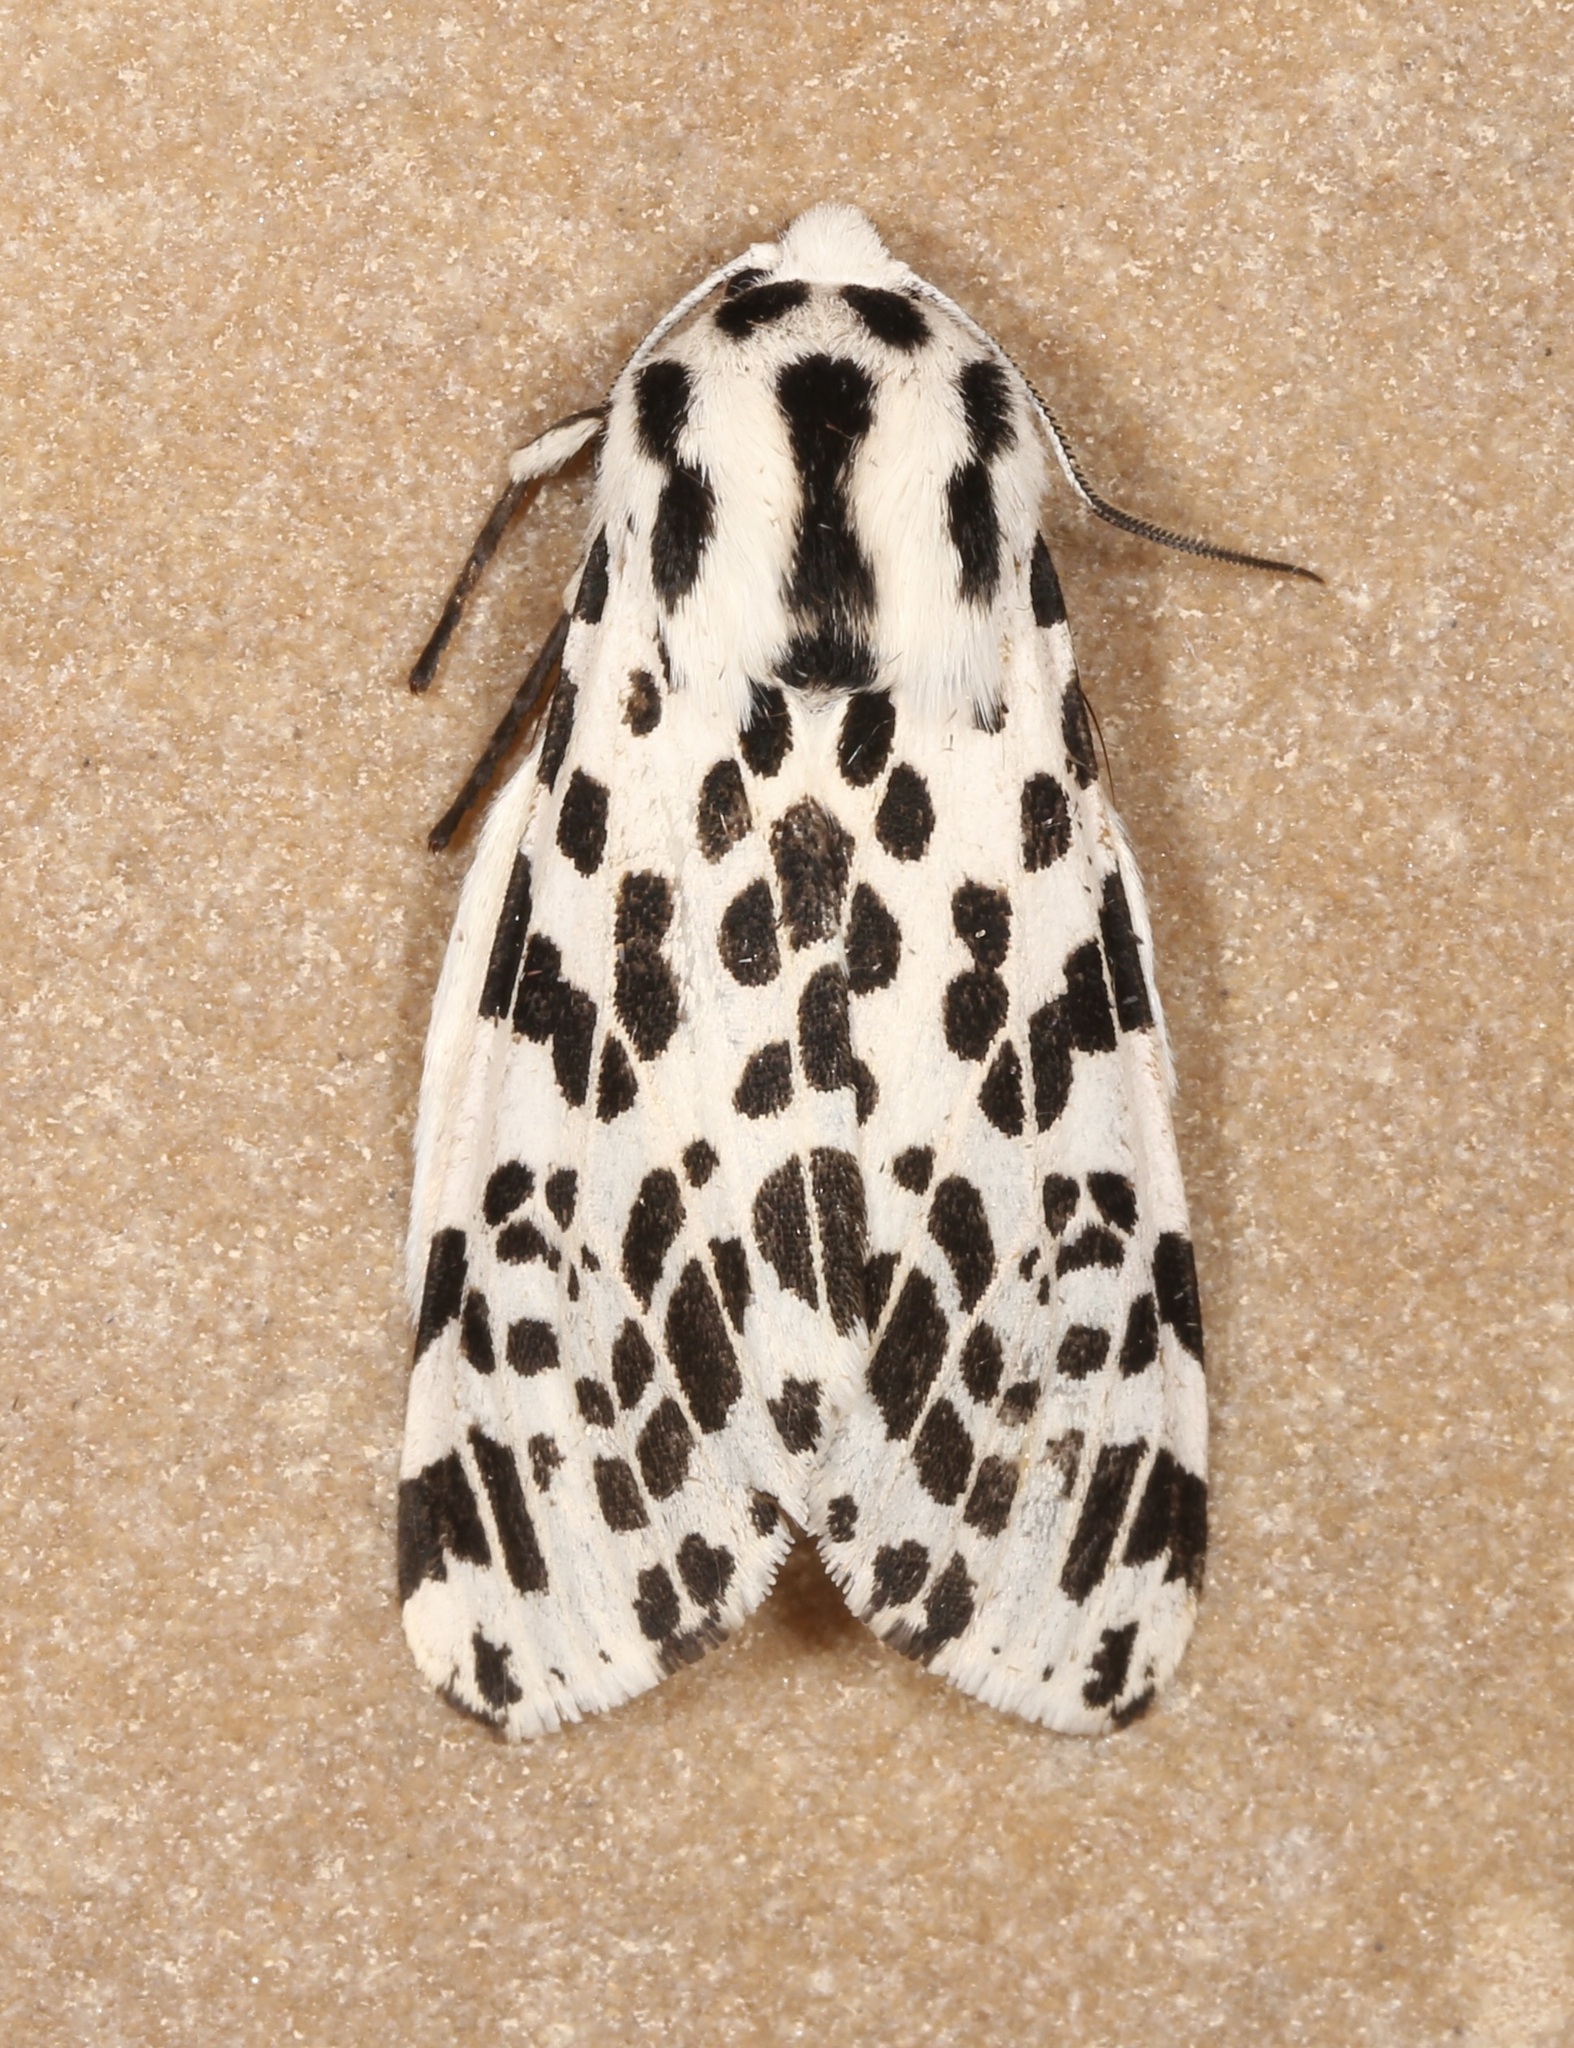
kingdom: Animalia
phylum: Arthropoda
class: Insecta
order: Lepidoptera
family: Erebidae
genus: Hypercompe
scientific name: Hypercompe permaculata
